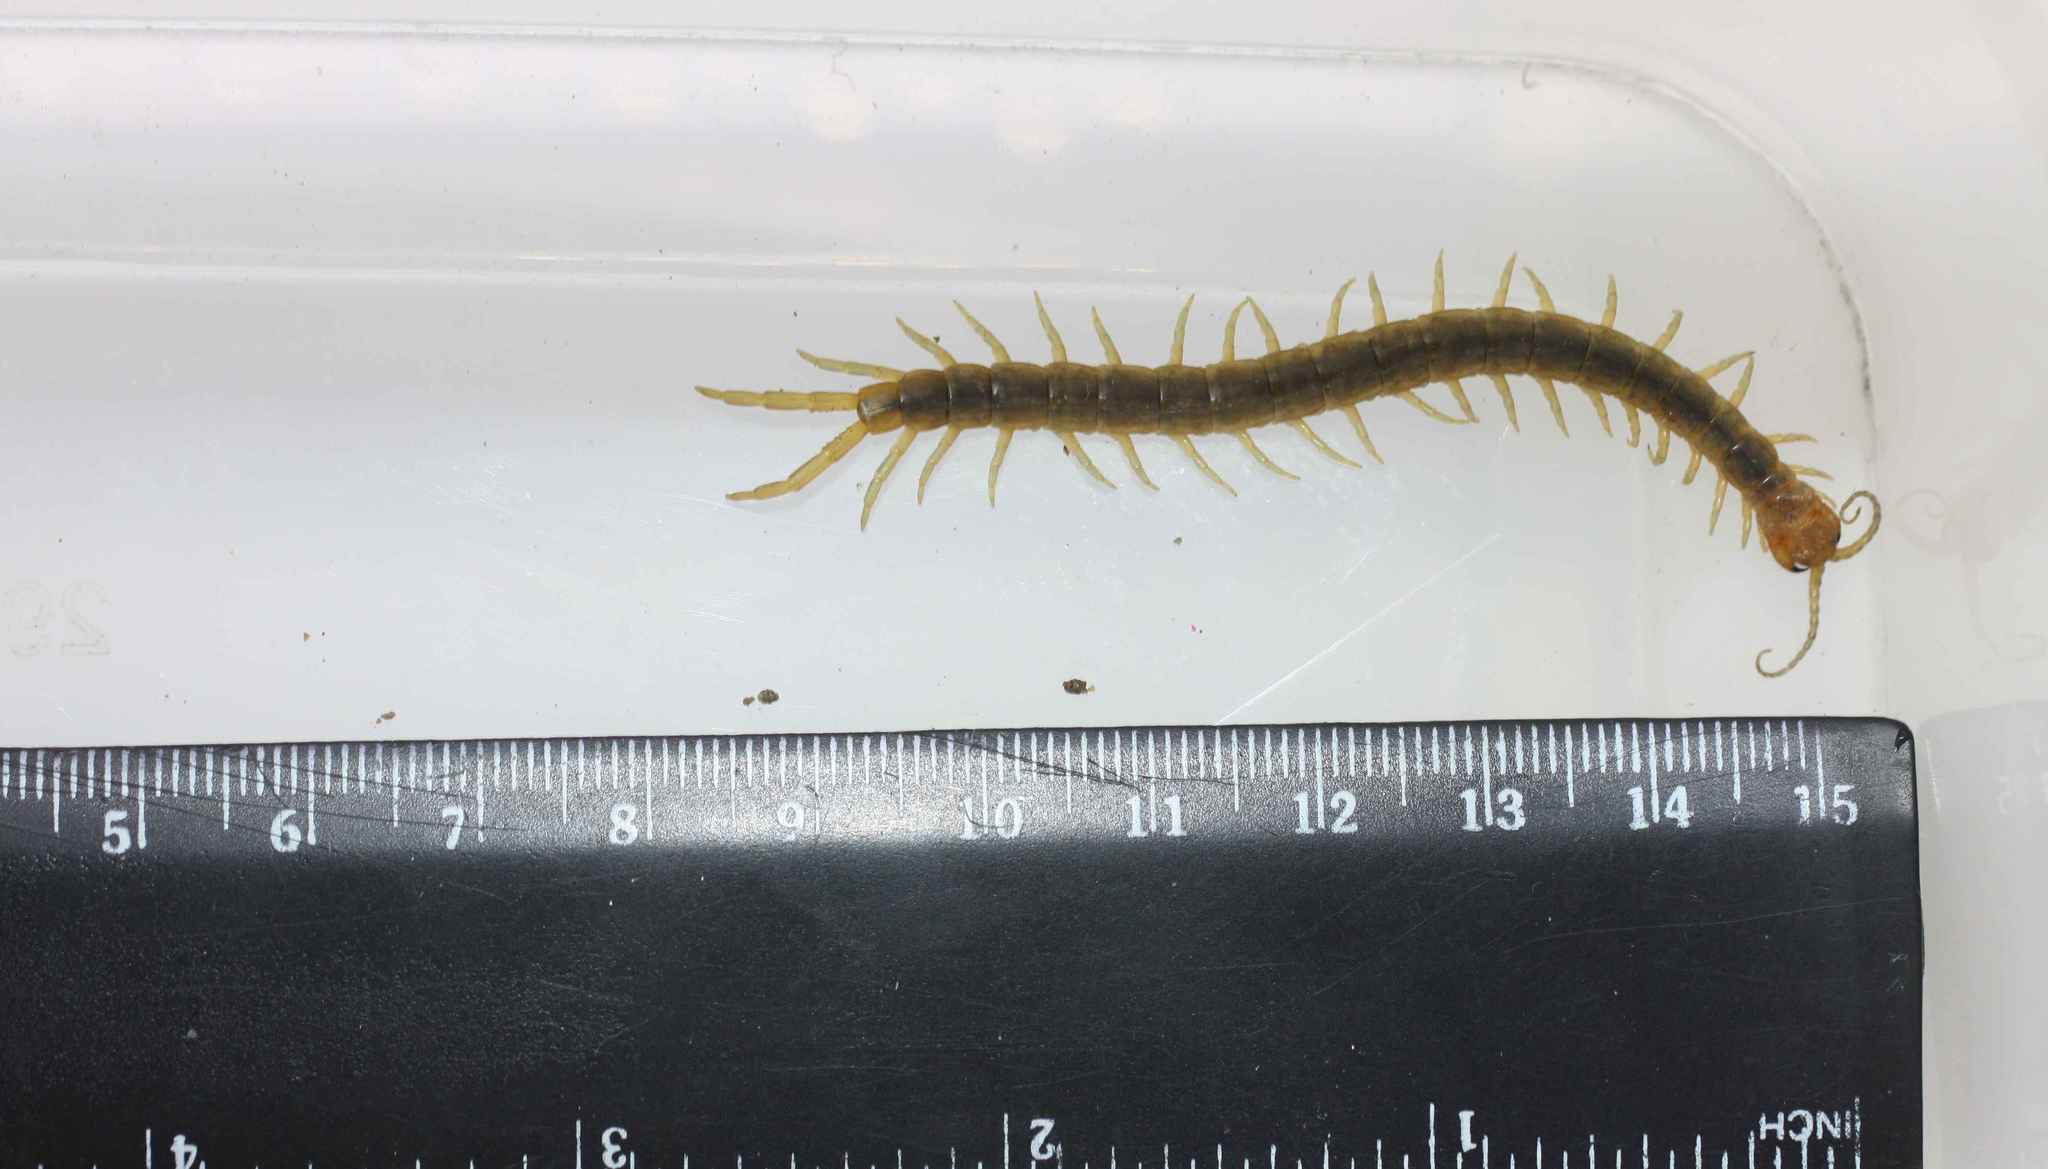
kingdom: Animalia
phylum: Arthropoda
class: Chilopoda
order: Scolopendromorpha
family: Scolopendridae
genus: Scolopendra
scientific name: Scolopendra canidens
